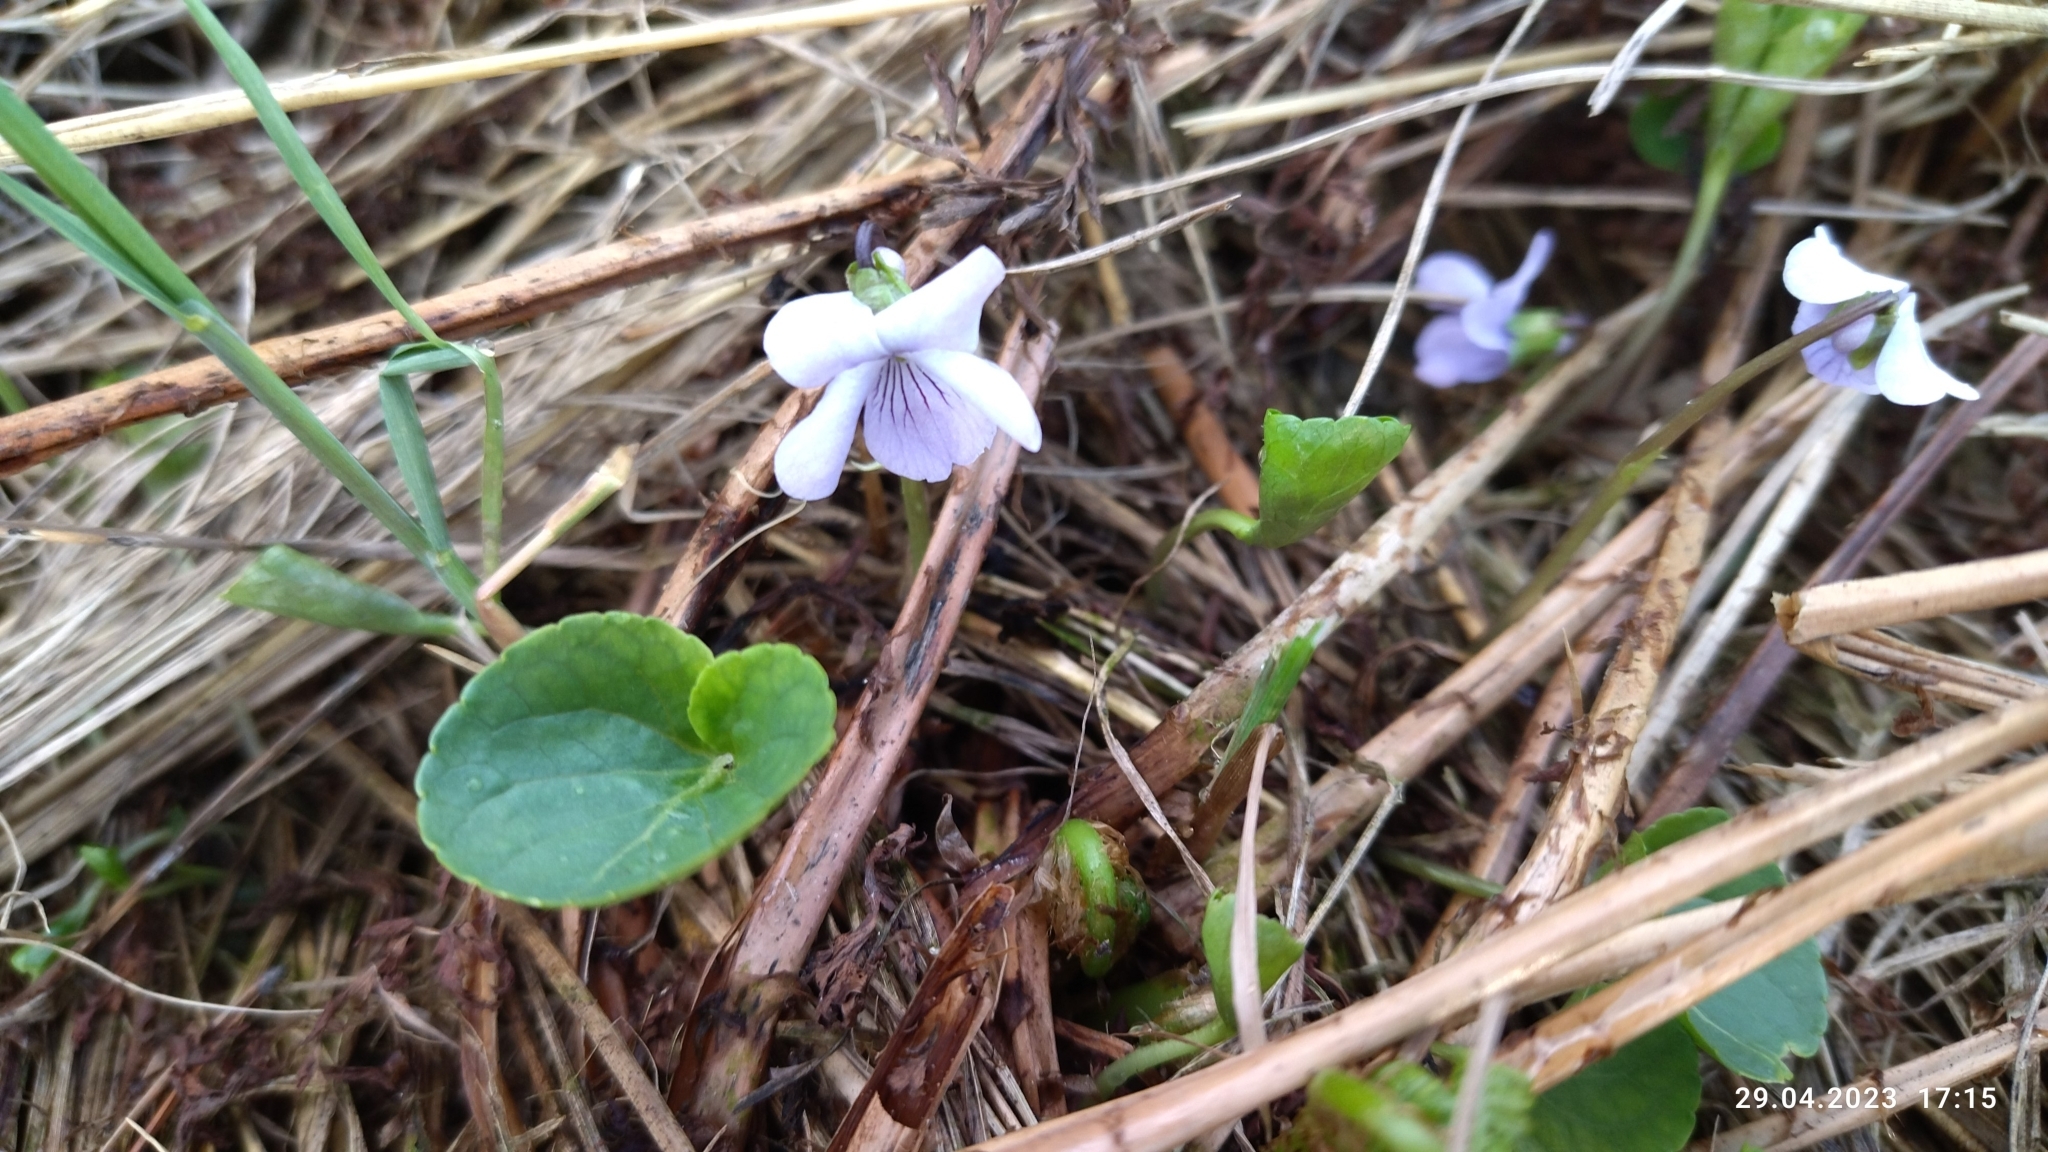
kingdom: Plantae
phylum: Tracheophyta
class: Magnoliopsida
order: Malpighiales
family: Violaceae
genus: Viola
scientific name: Viola palustris
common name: Marsh violet
